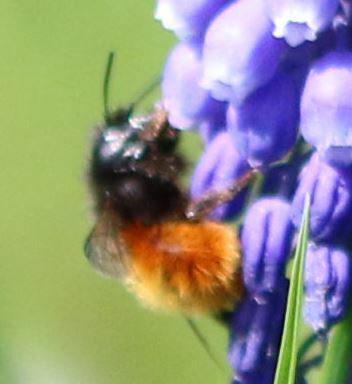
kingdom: Animalia
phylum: Arthropoda
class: Insecta
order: Hymenoptera
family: Megachilidae
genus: Osmia
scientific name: Osmia cornuta
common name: Mason bee
